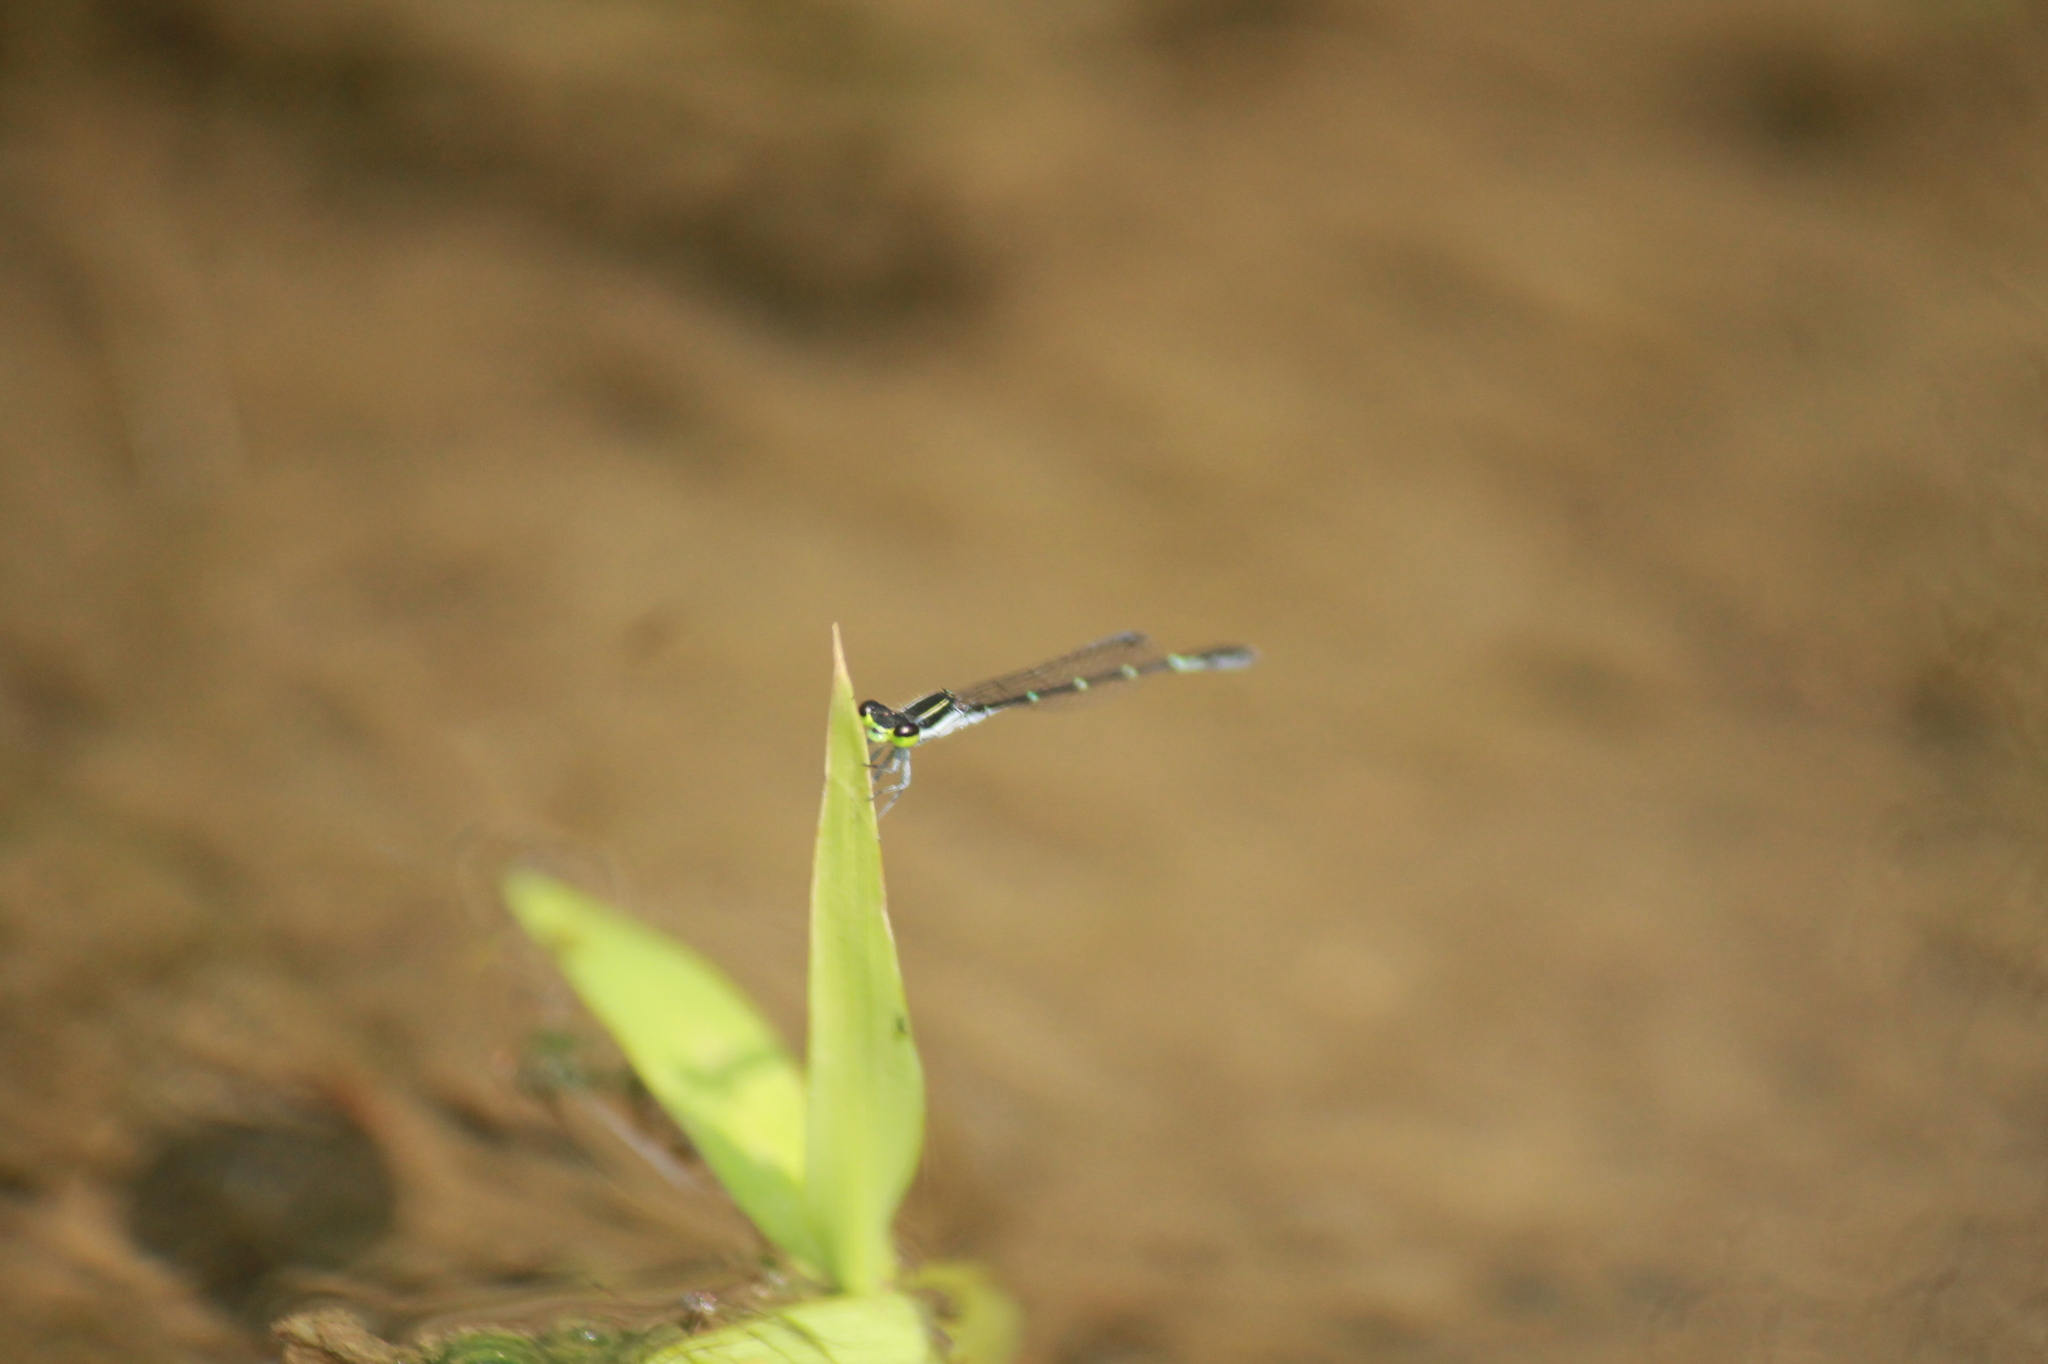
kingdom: Animalia
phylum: Arthropoda
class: Insecta
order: Odonata
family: Coenagrionidae
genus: Agriocnemis
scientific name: Agriocnemis splendidissima
